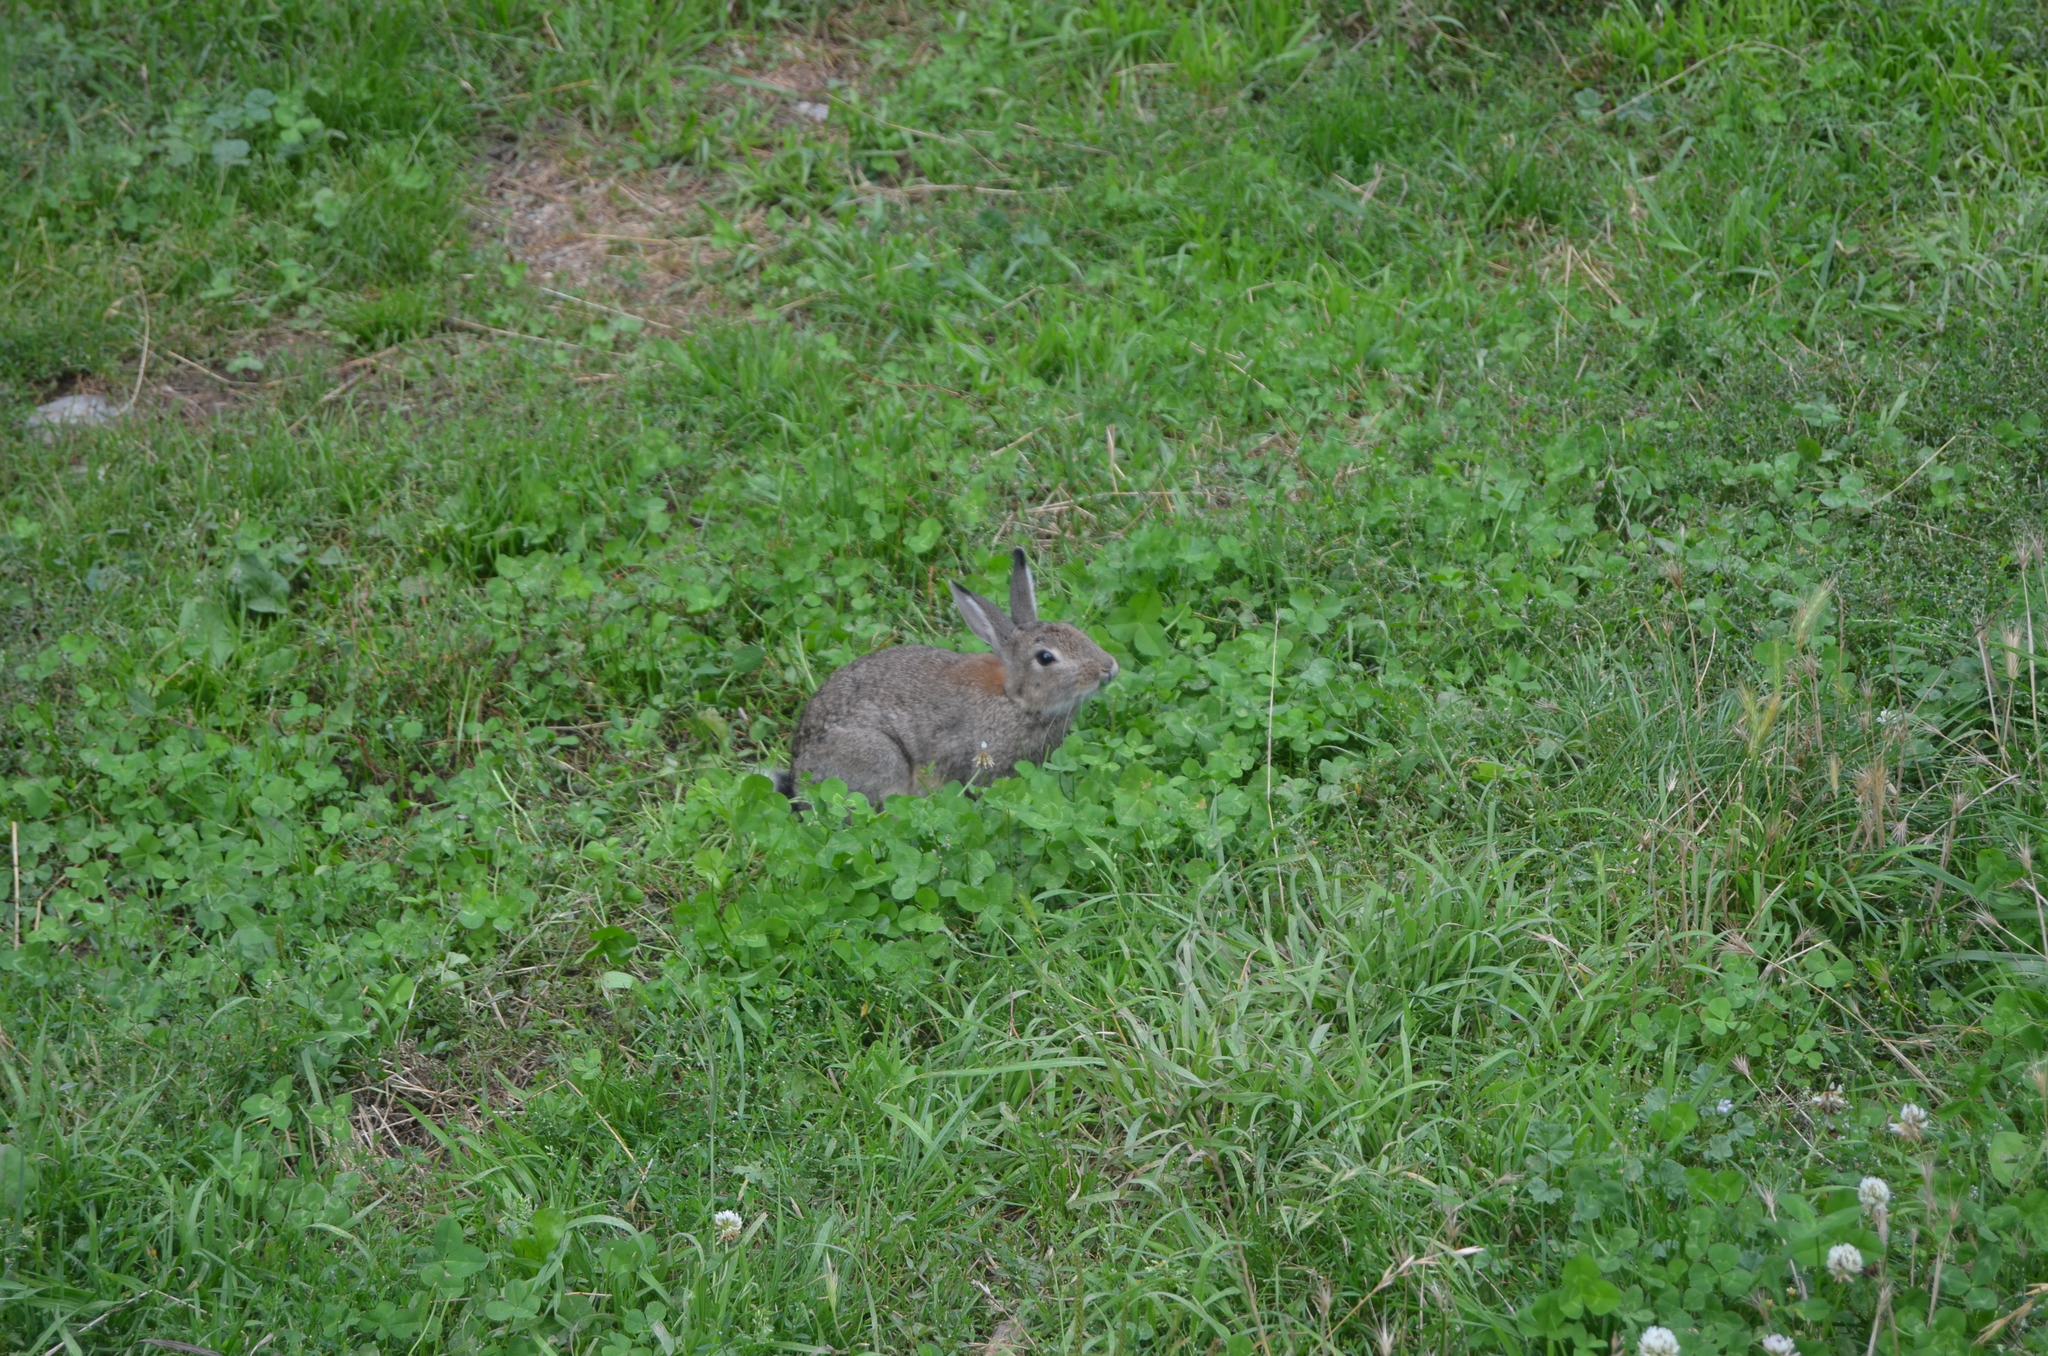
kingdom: Animalia
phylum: Chordata
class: Mammalia
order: Lagomorpha
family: Leporidae
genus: Oryctolagus
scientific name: Oryctolagus cuniculus
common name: European rabbit
